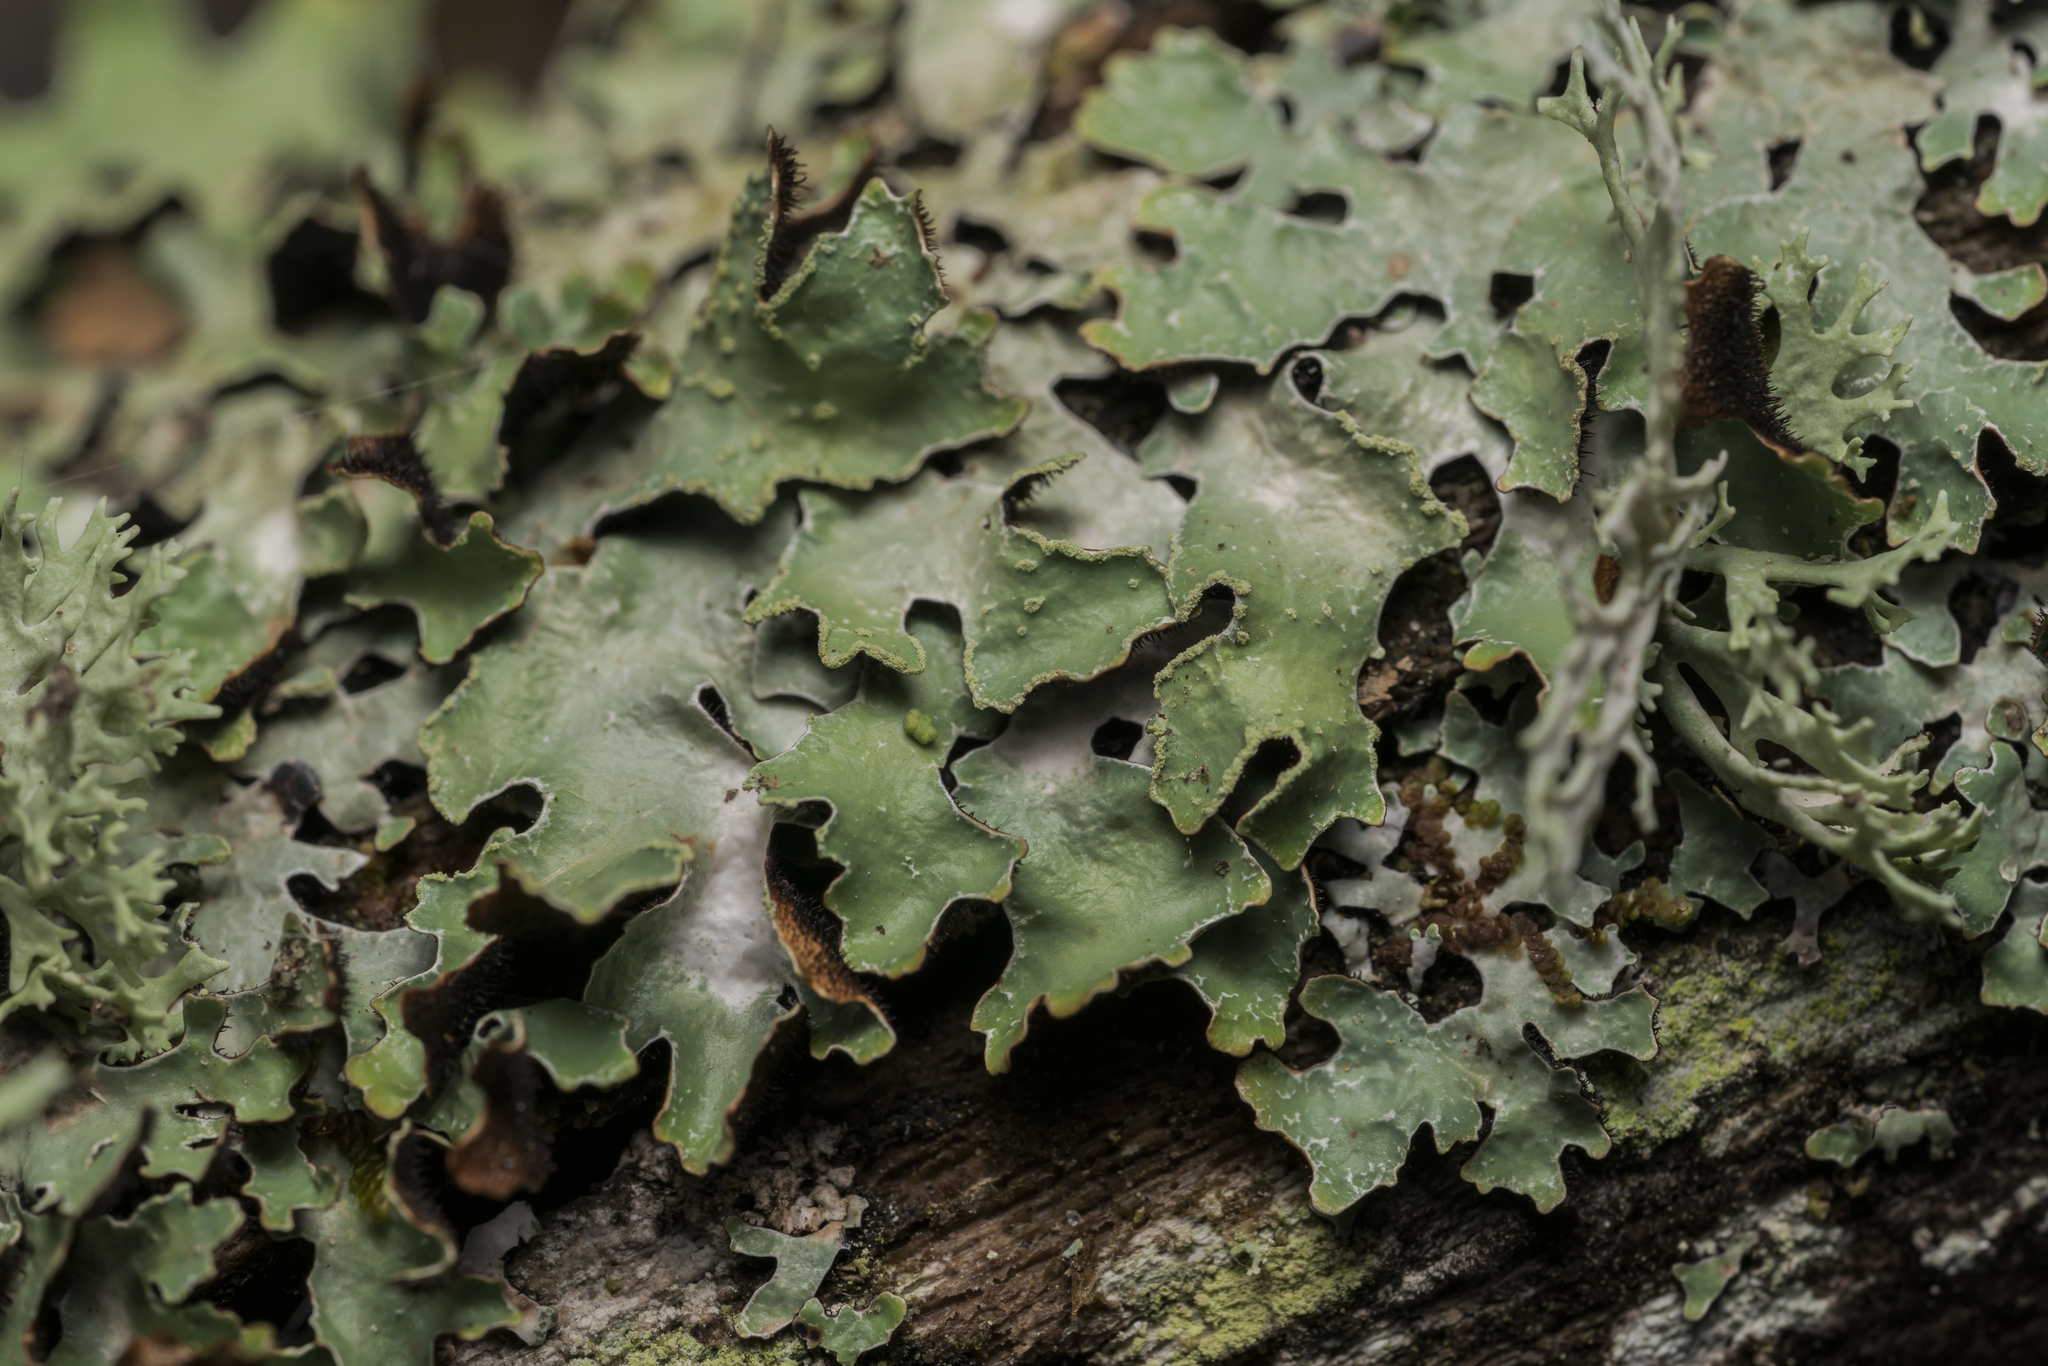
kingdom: Fungi
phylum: Ascomycota
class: Lecanoromycetes
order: Lecanorales
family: Parmeliaceae
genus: Parmelia
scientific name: Parmelia sulcata
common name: Netted shield lichen
